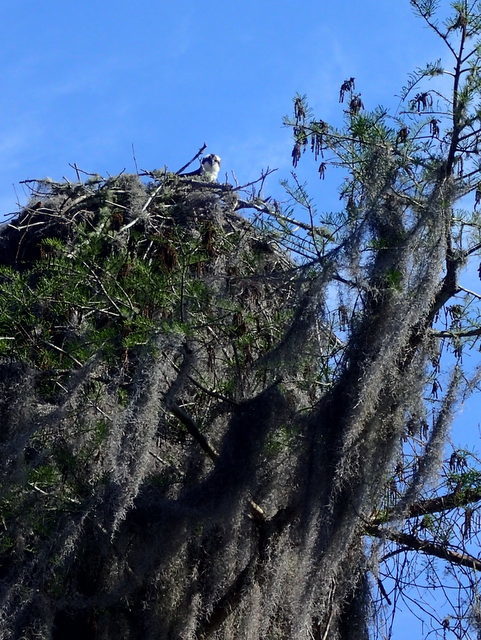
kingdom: Animalia
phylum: Chordata
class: Aves
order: Accipitriformes
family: Pandionidae
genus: Pandion
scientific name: Pandion haliaetus
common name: Osprey
